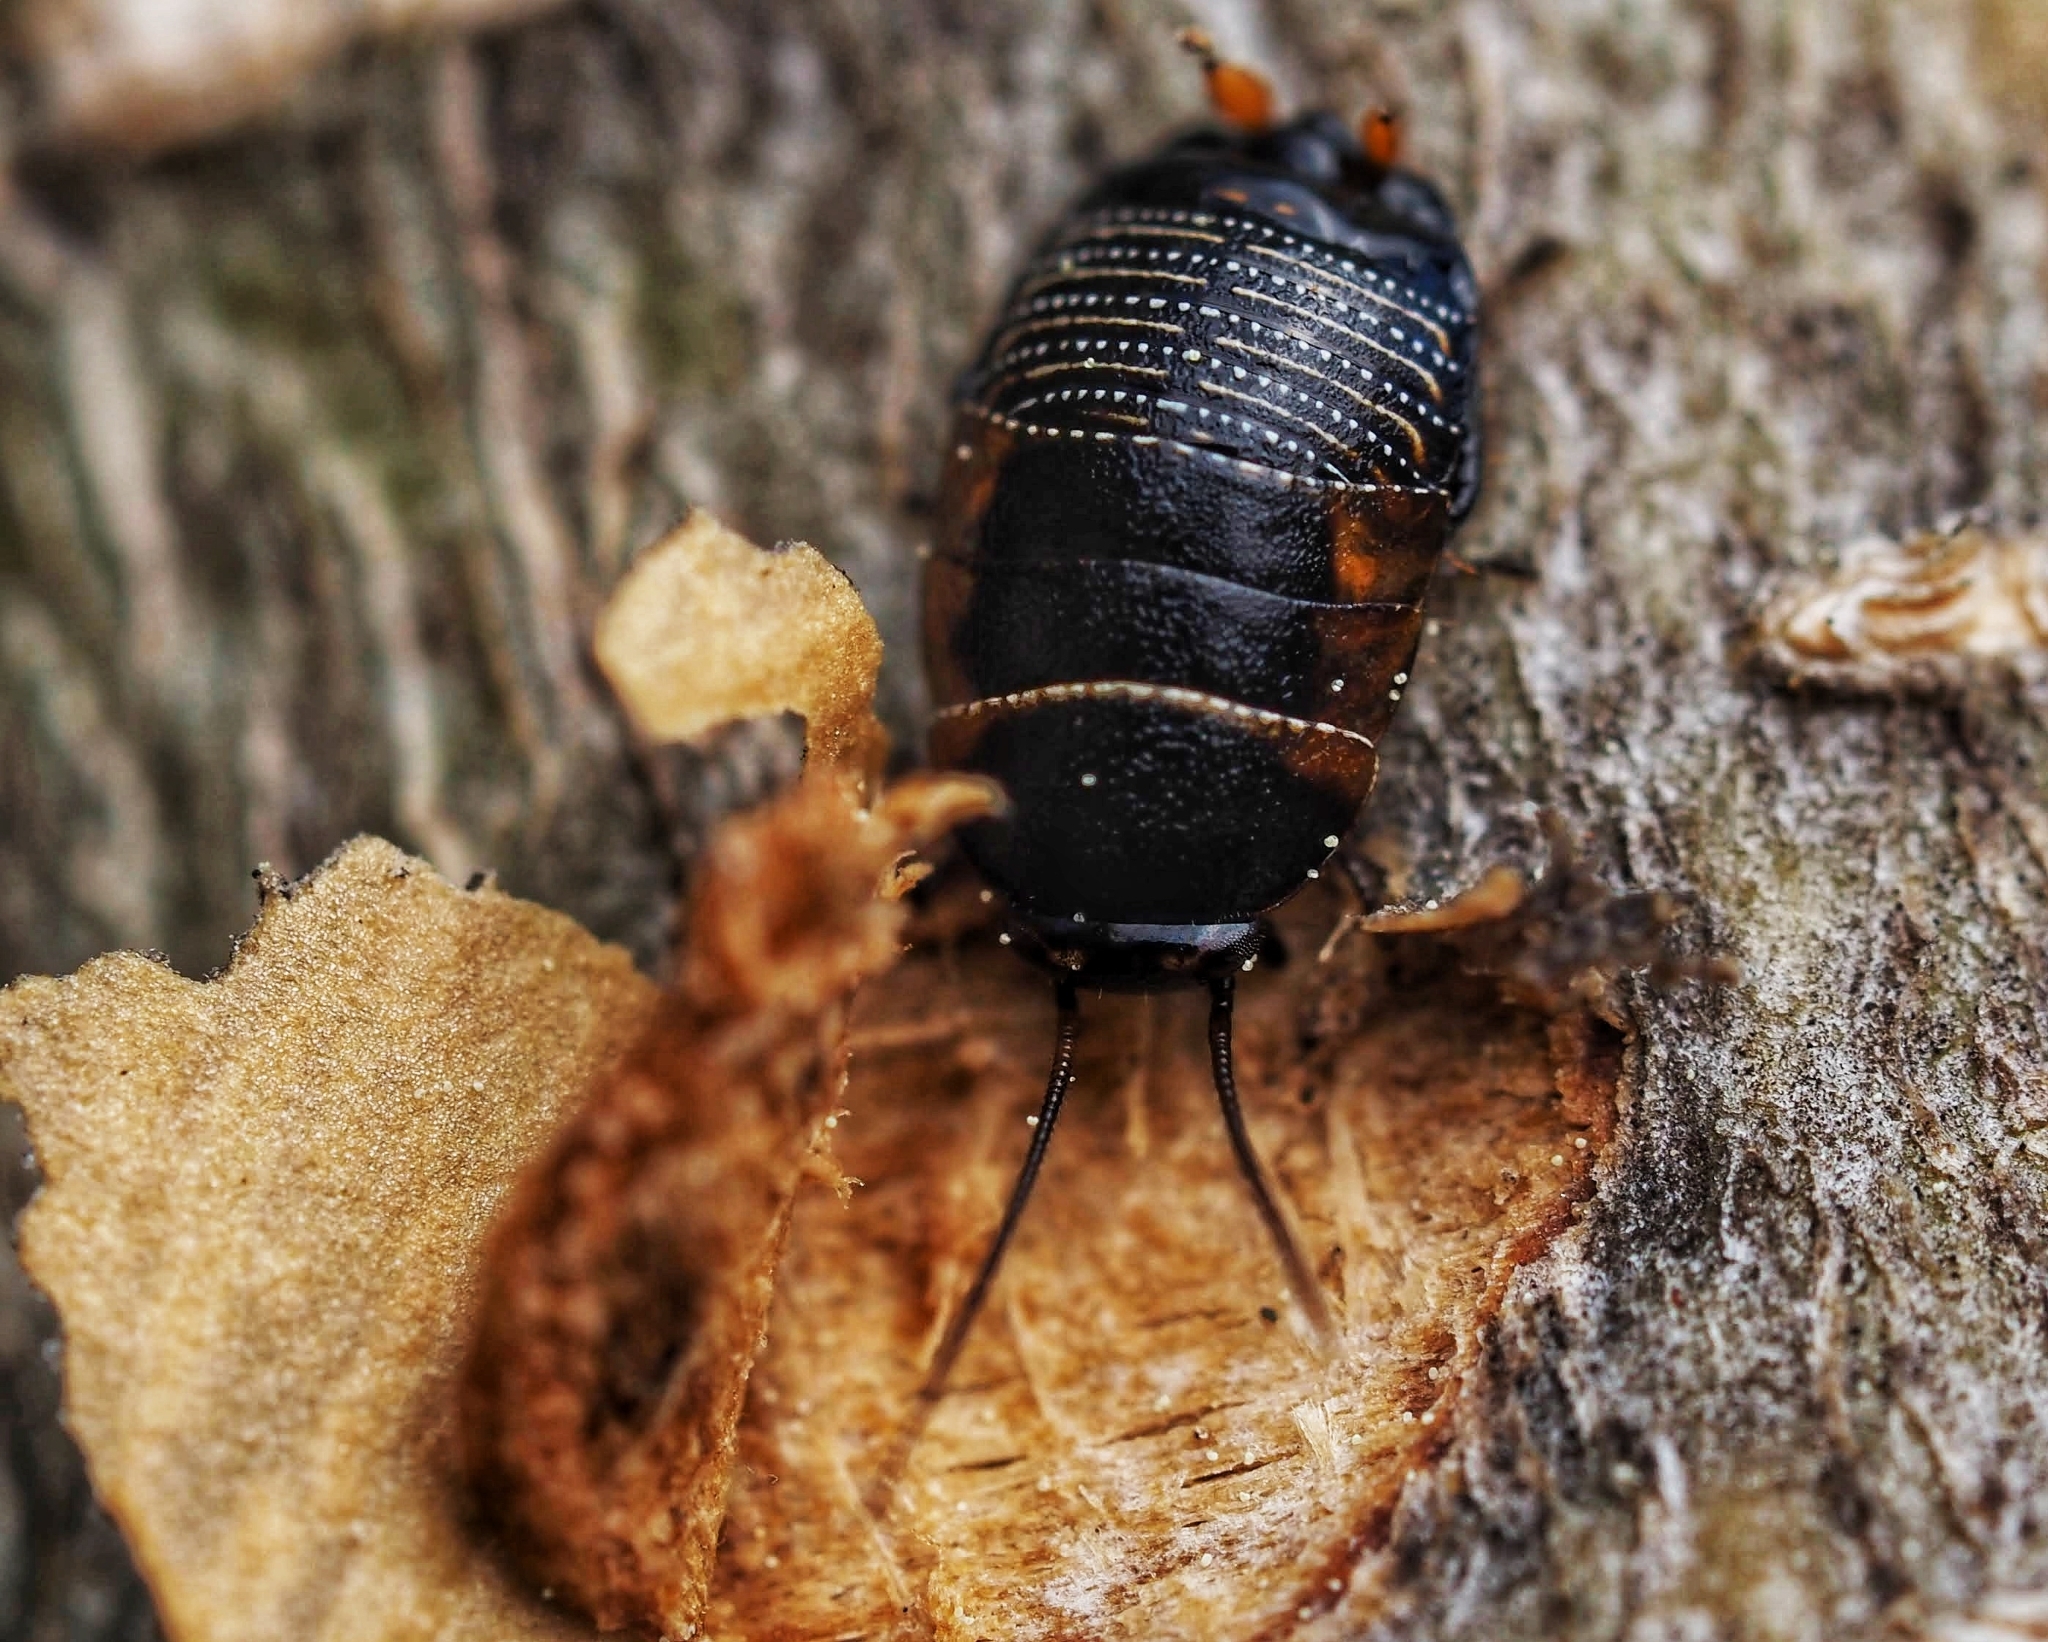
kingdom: Animalia
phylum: Arthropoda
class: Insecta
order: Blattodea
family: Ectobiidae
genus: Ellipsidion
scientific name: Ellipsidion australe
